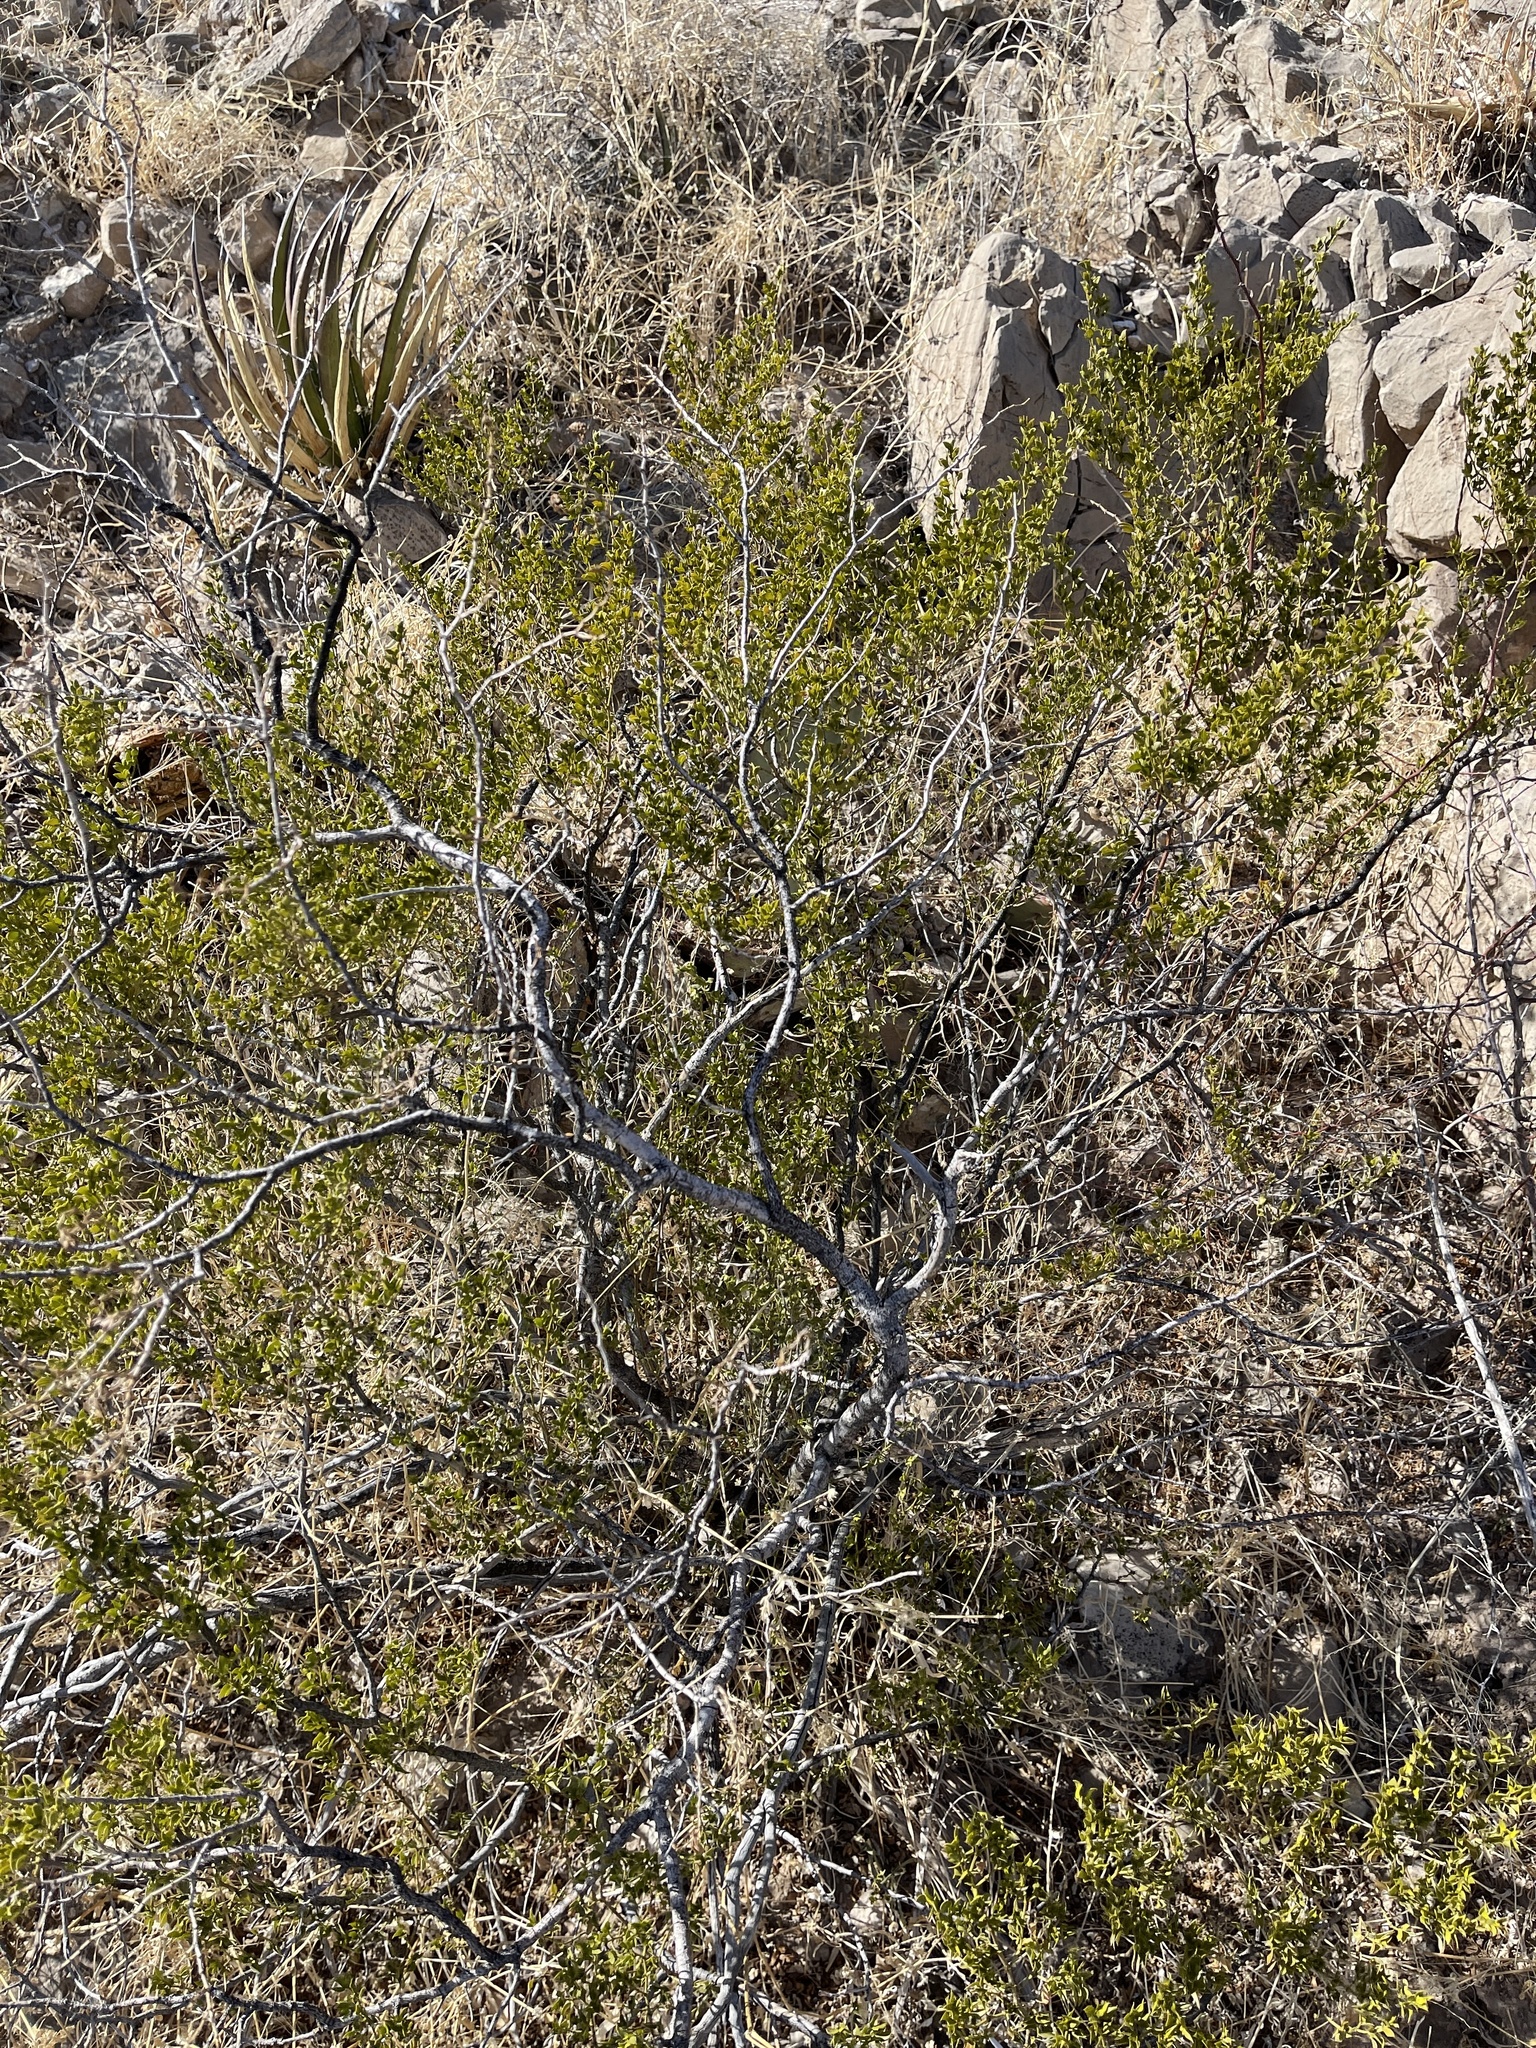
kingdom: Plantae
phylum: Tracheophyta
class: Magnoliopsida
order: Zygophyllales
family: Zygophyllaceae
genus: Larrea
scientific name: Larrea tridentata
